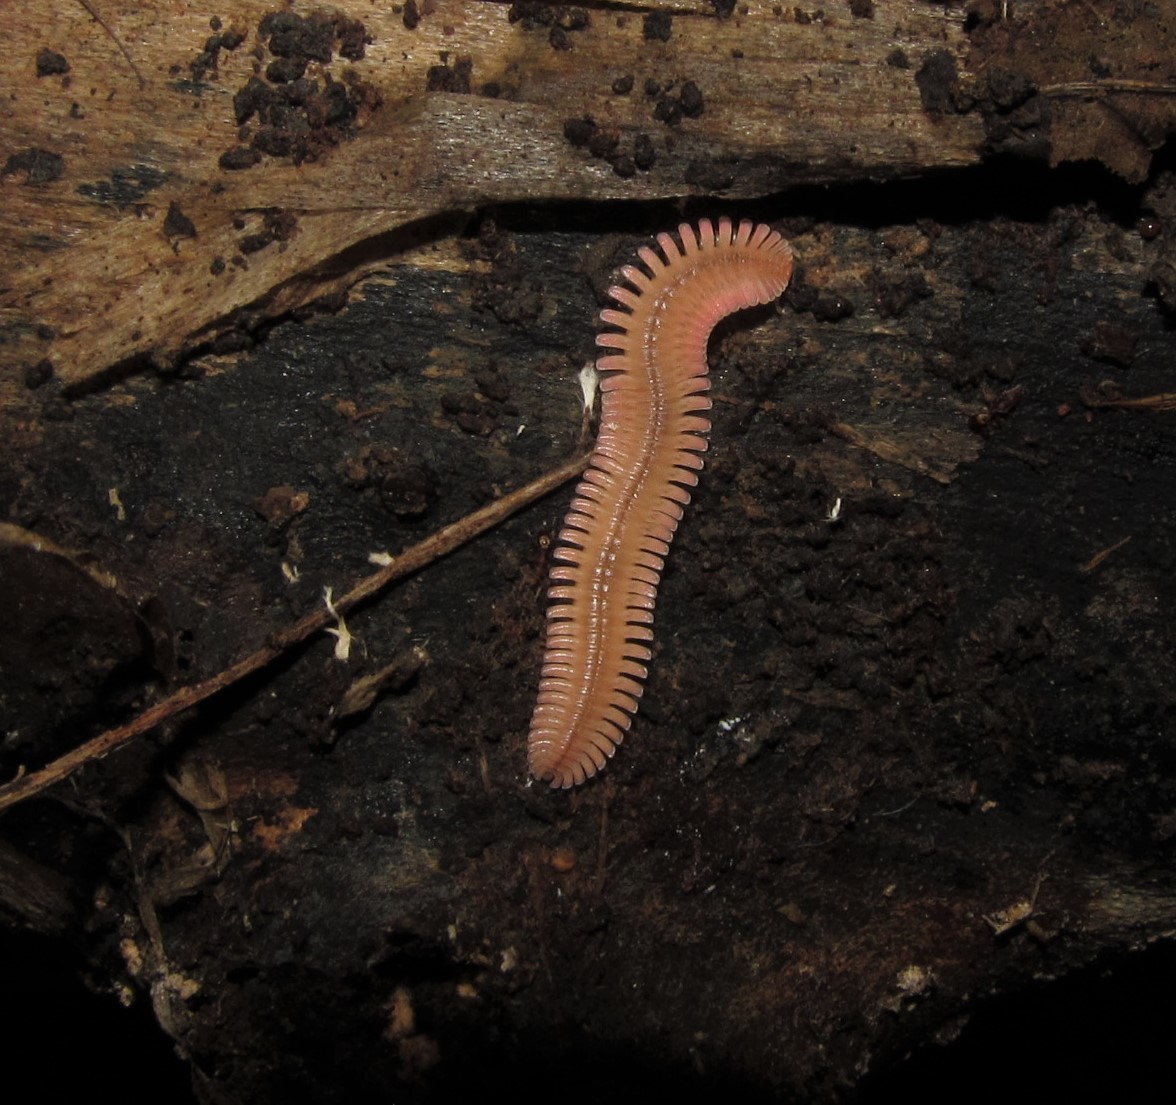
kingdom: Animalia
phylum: Arthropoda
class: Diplopoda
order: Platydesmida
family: Andrognathidae
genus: Brachycybe
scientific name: Brachycybe lecontii
